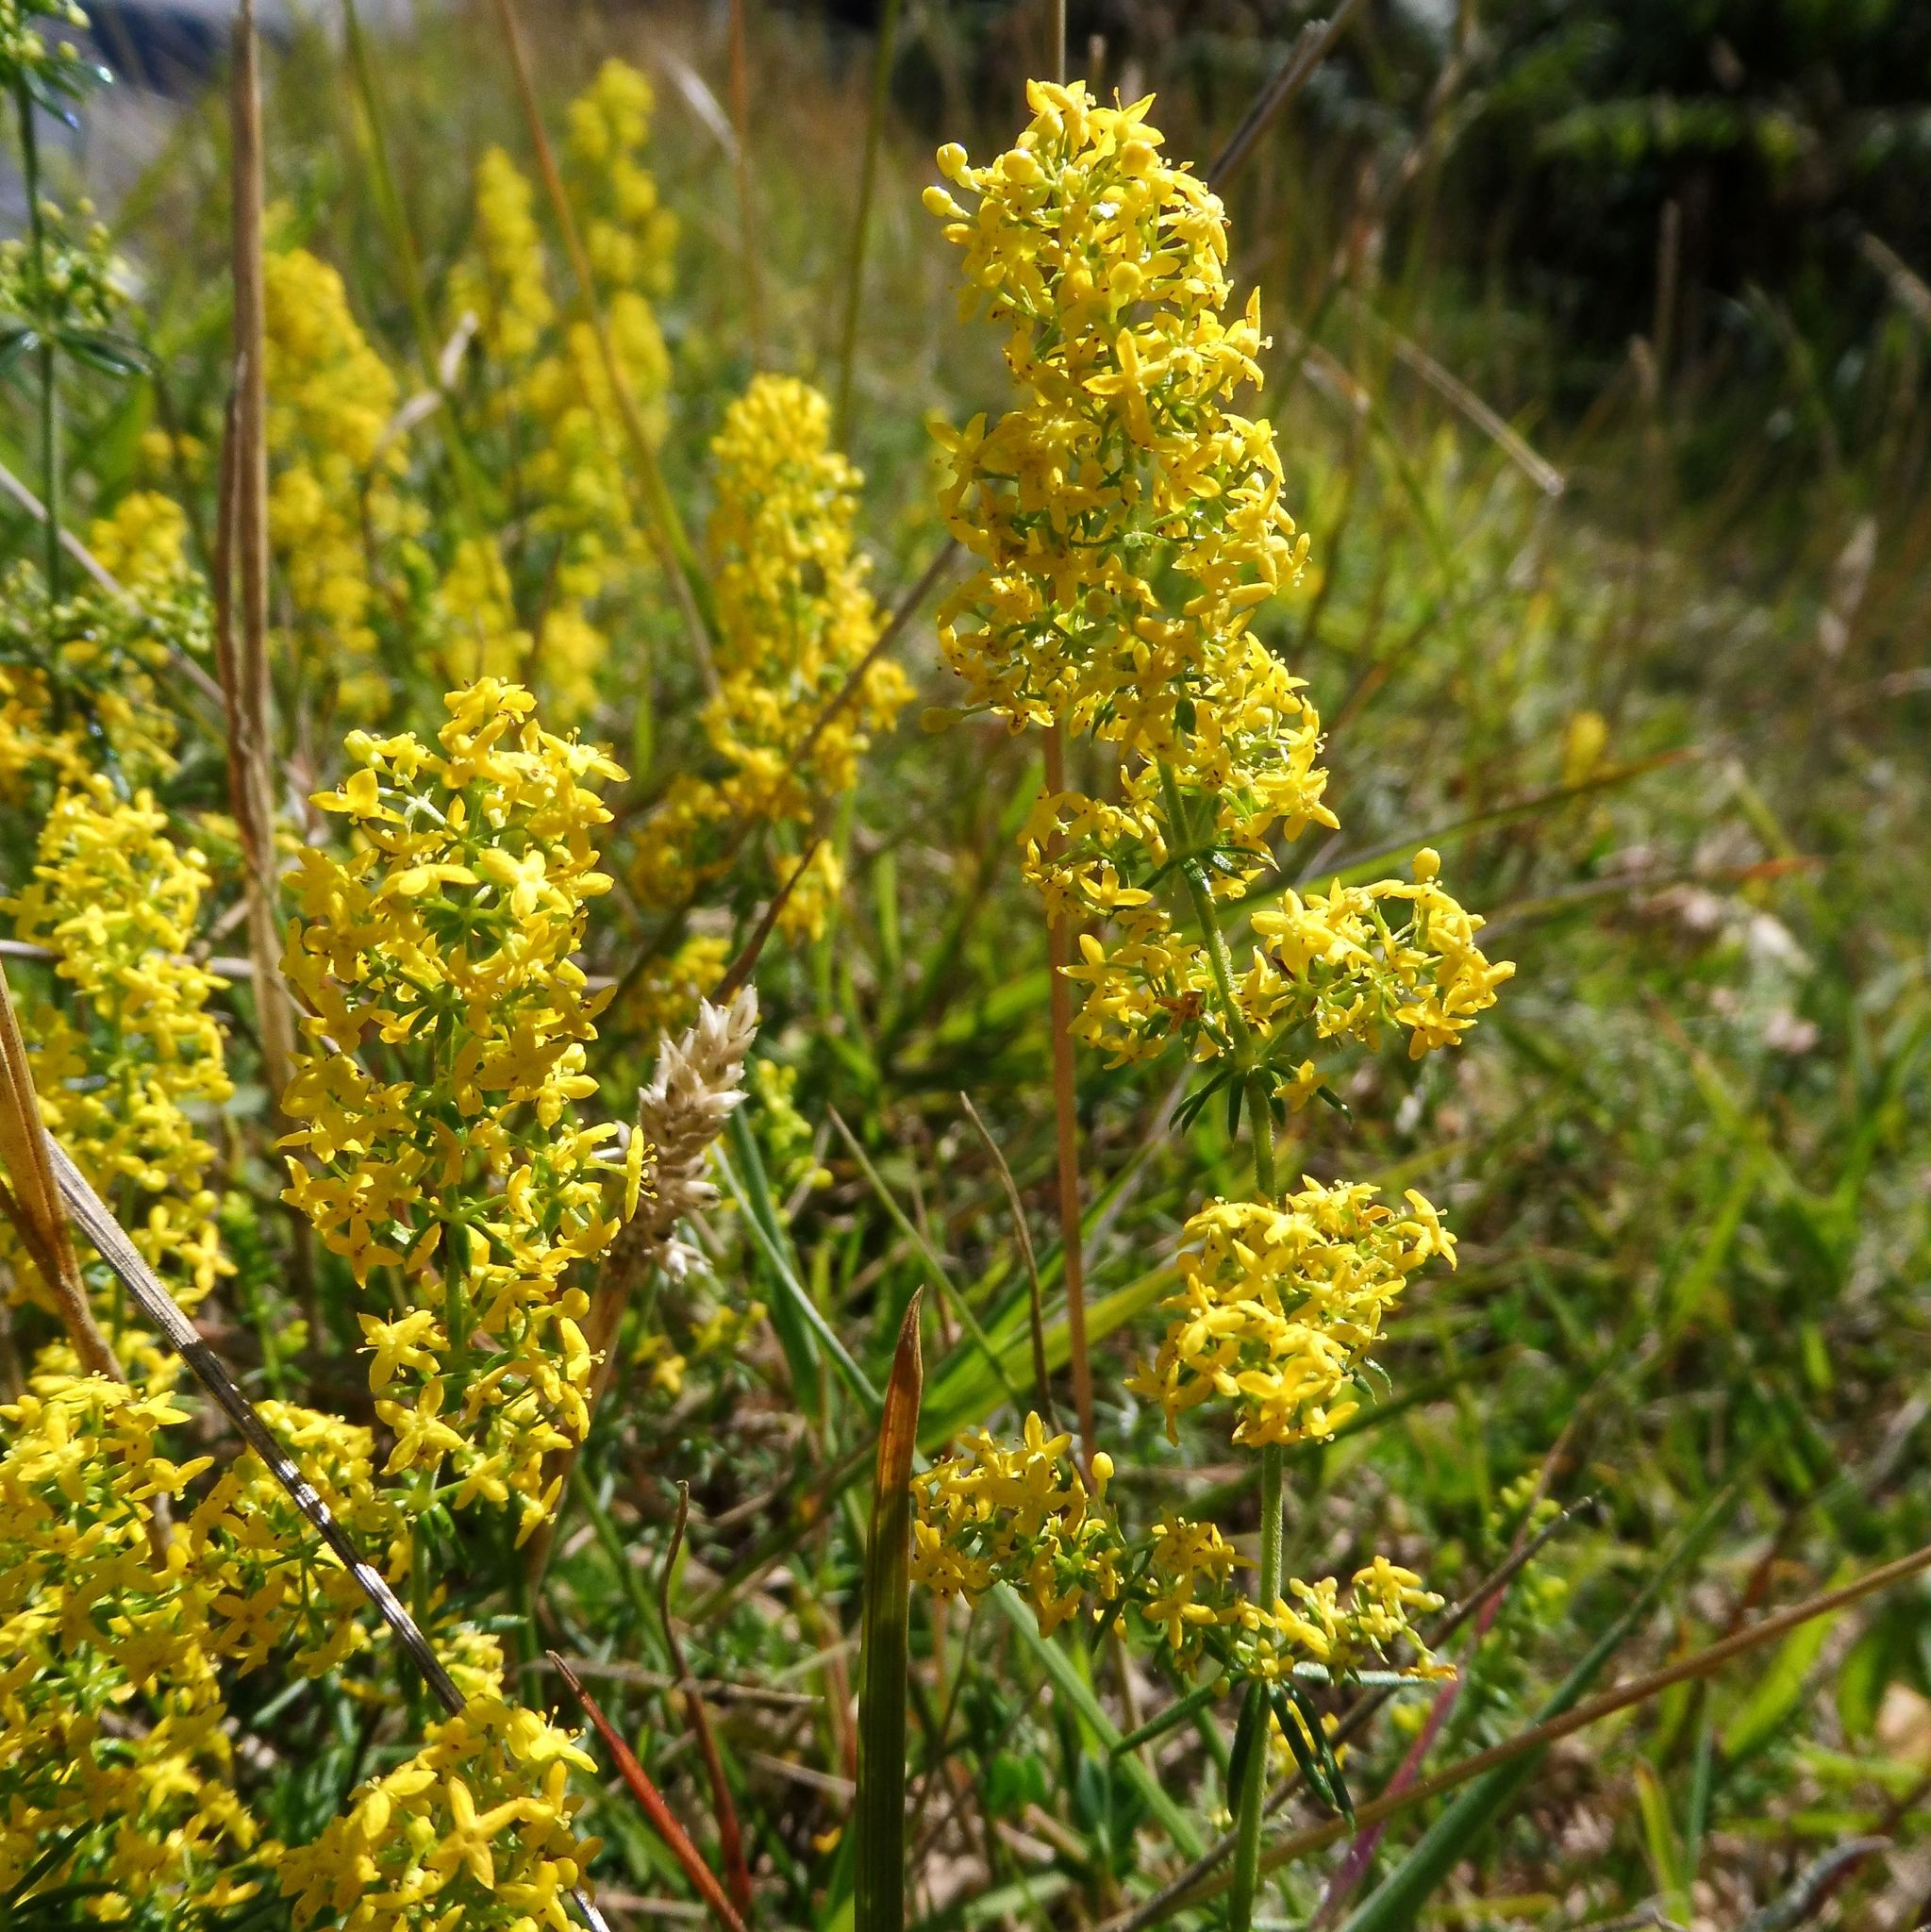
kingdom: Plantae
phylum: Tracheophyta
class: Magnoliopsida
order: Gentianales
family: Rubiaceae
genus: Galium
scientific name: Galium verum
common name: Lady's bedstraw
